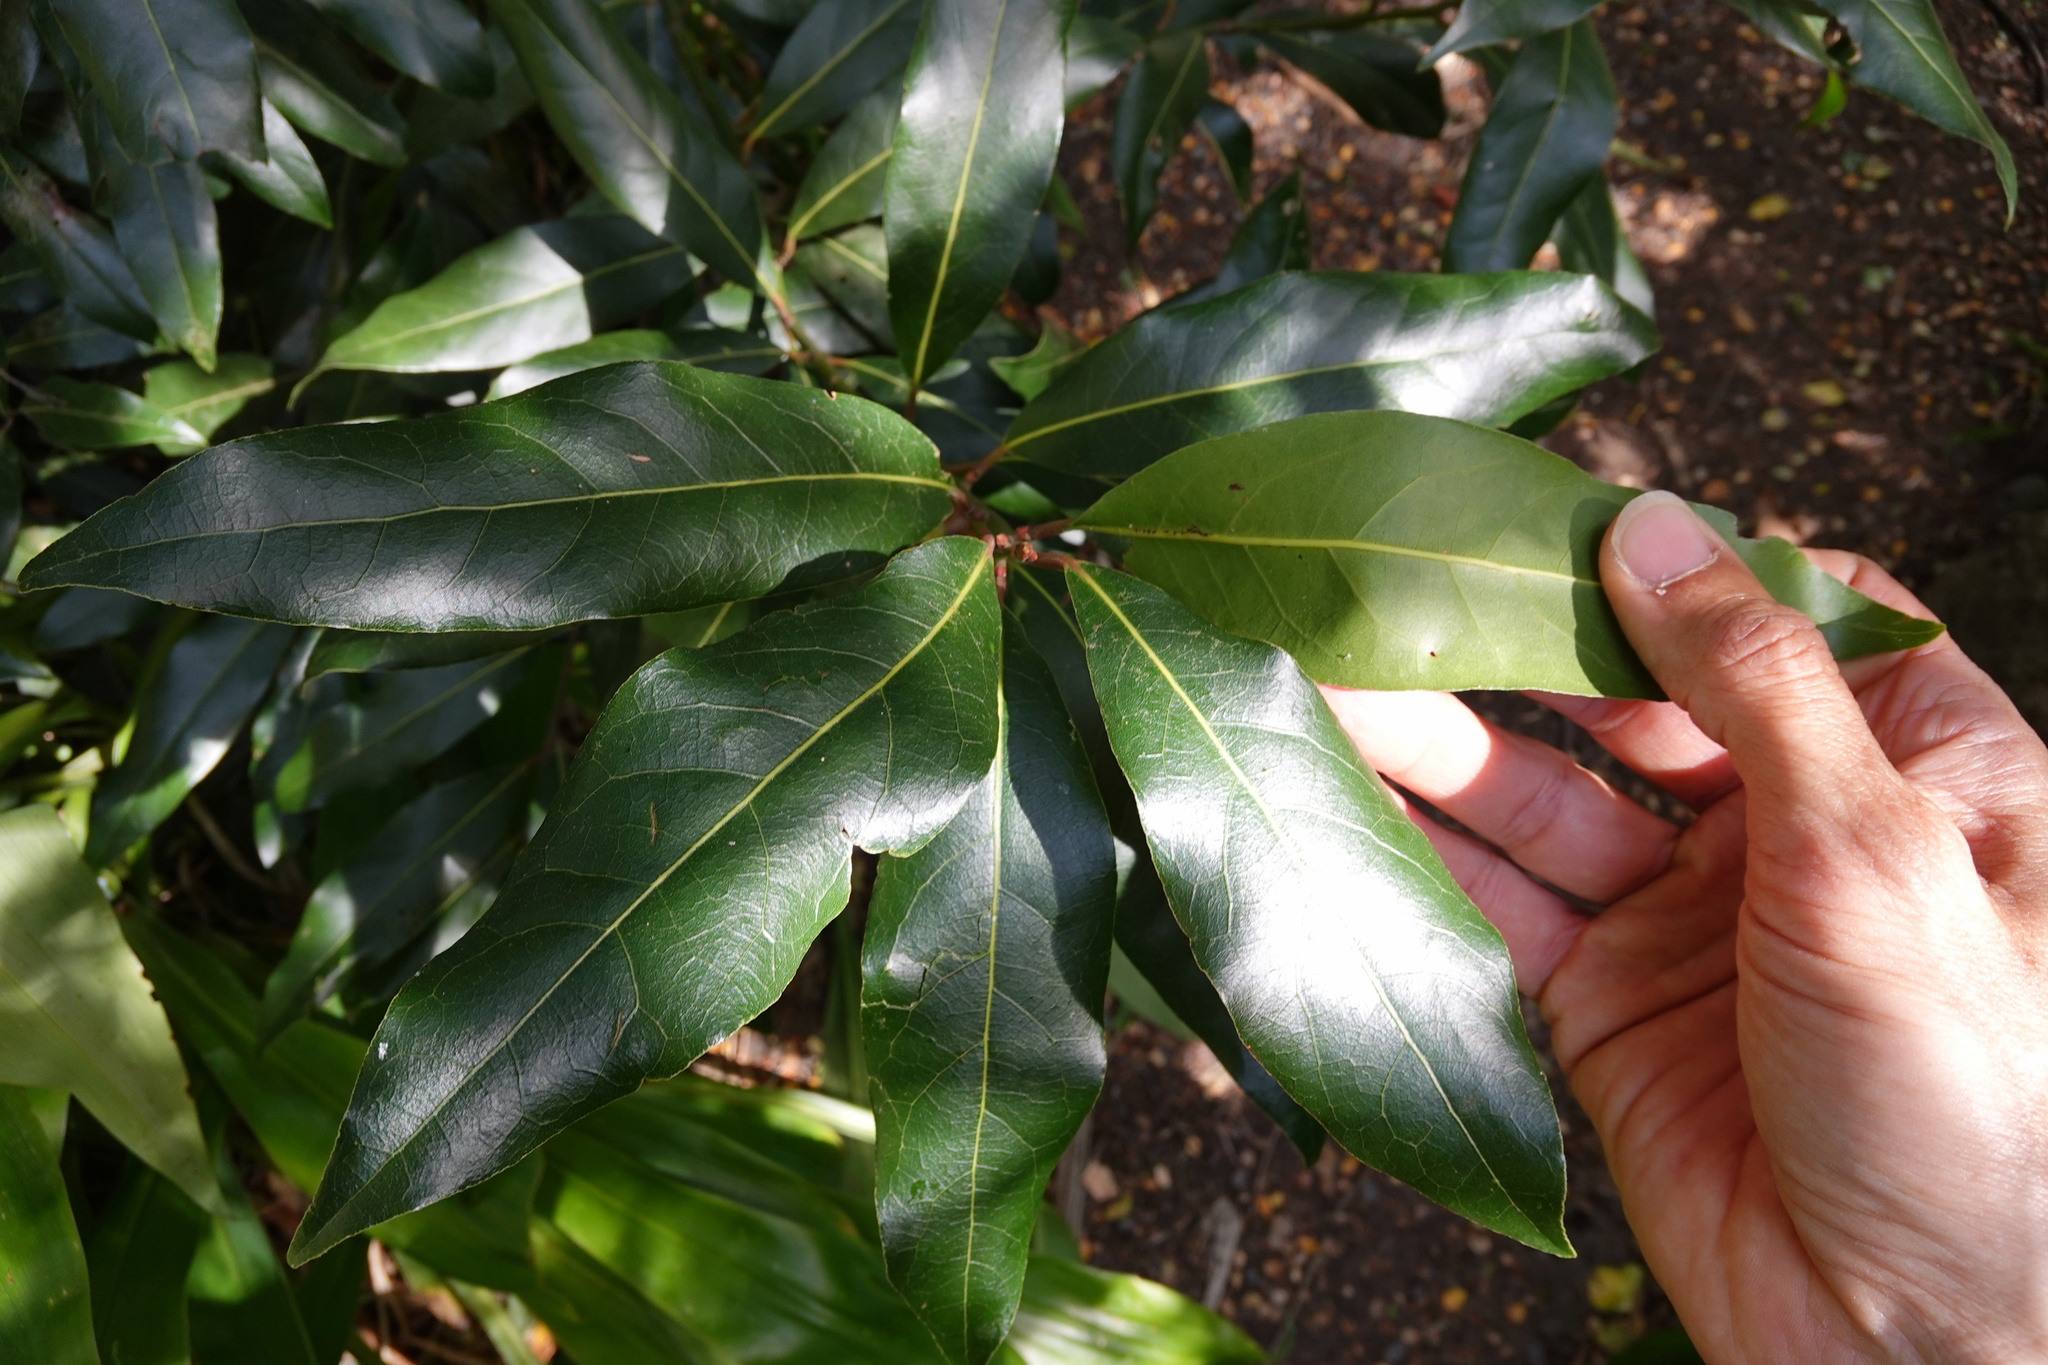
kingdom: Plantae
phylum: Tracheophyta
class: Magnoliopsida
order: Laurales
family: Lauraceae
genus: Laurus
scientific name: Laurus nobilis
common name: Bay
